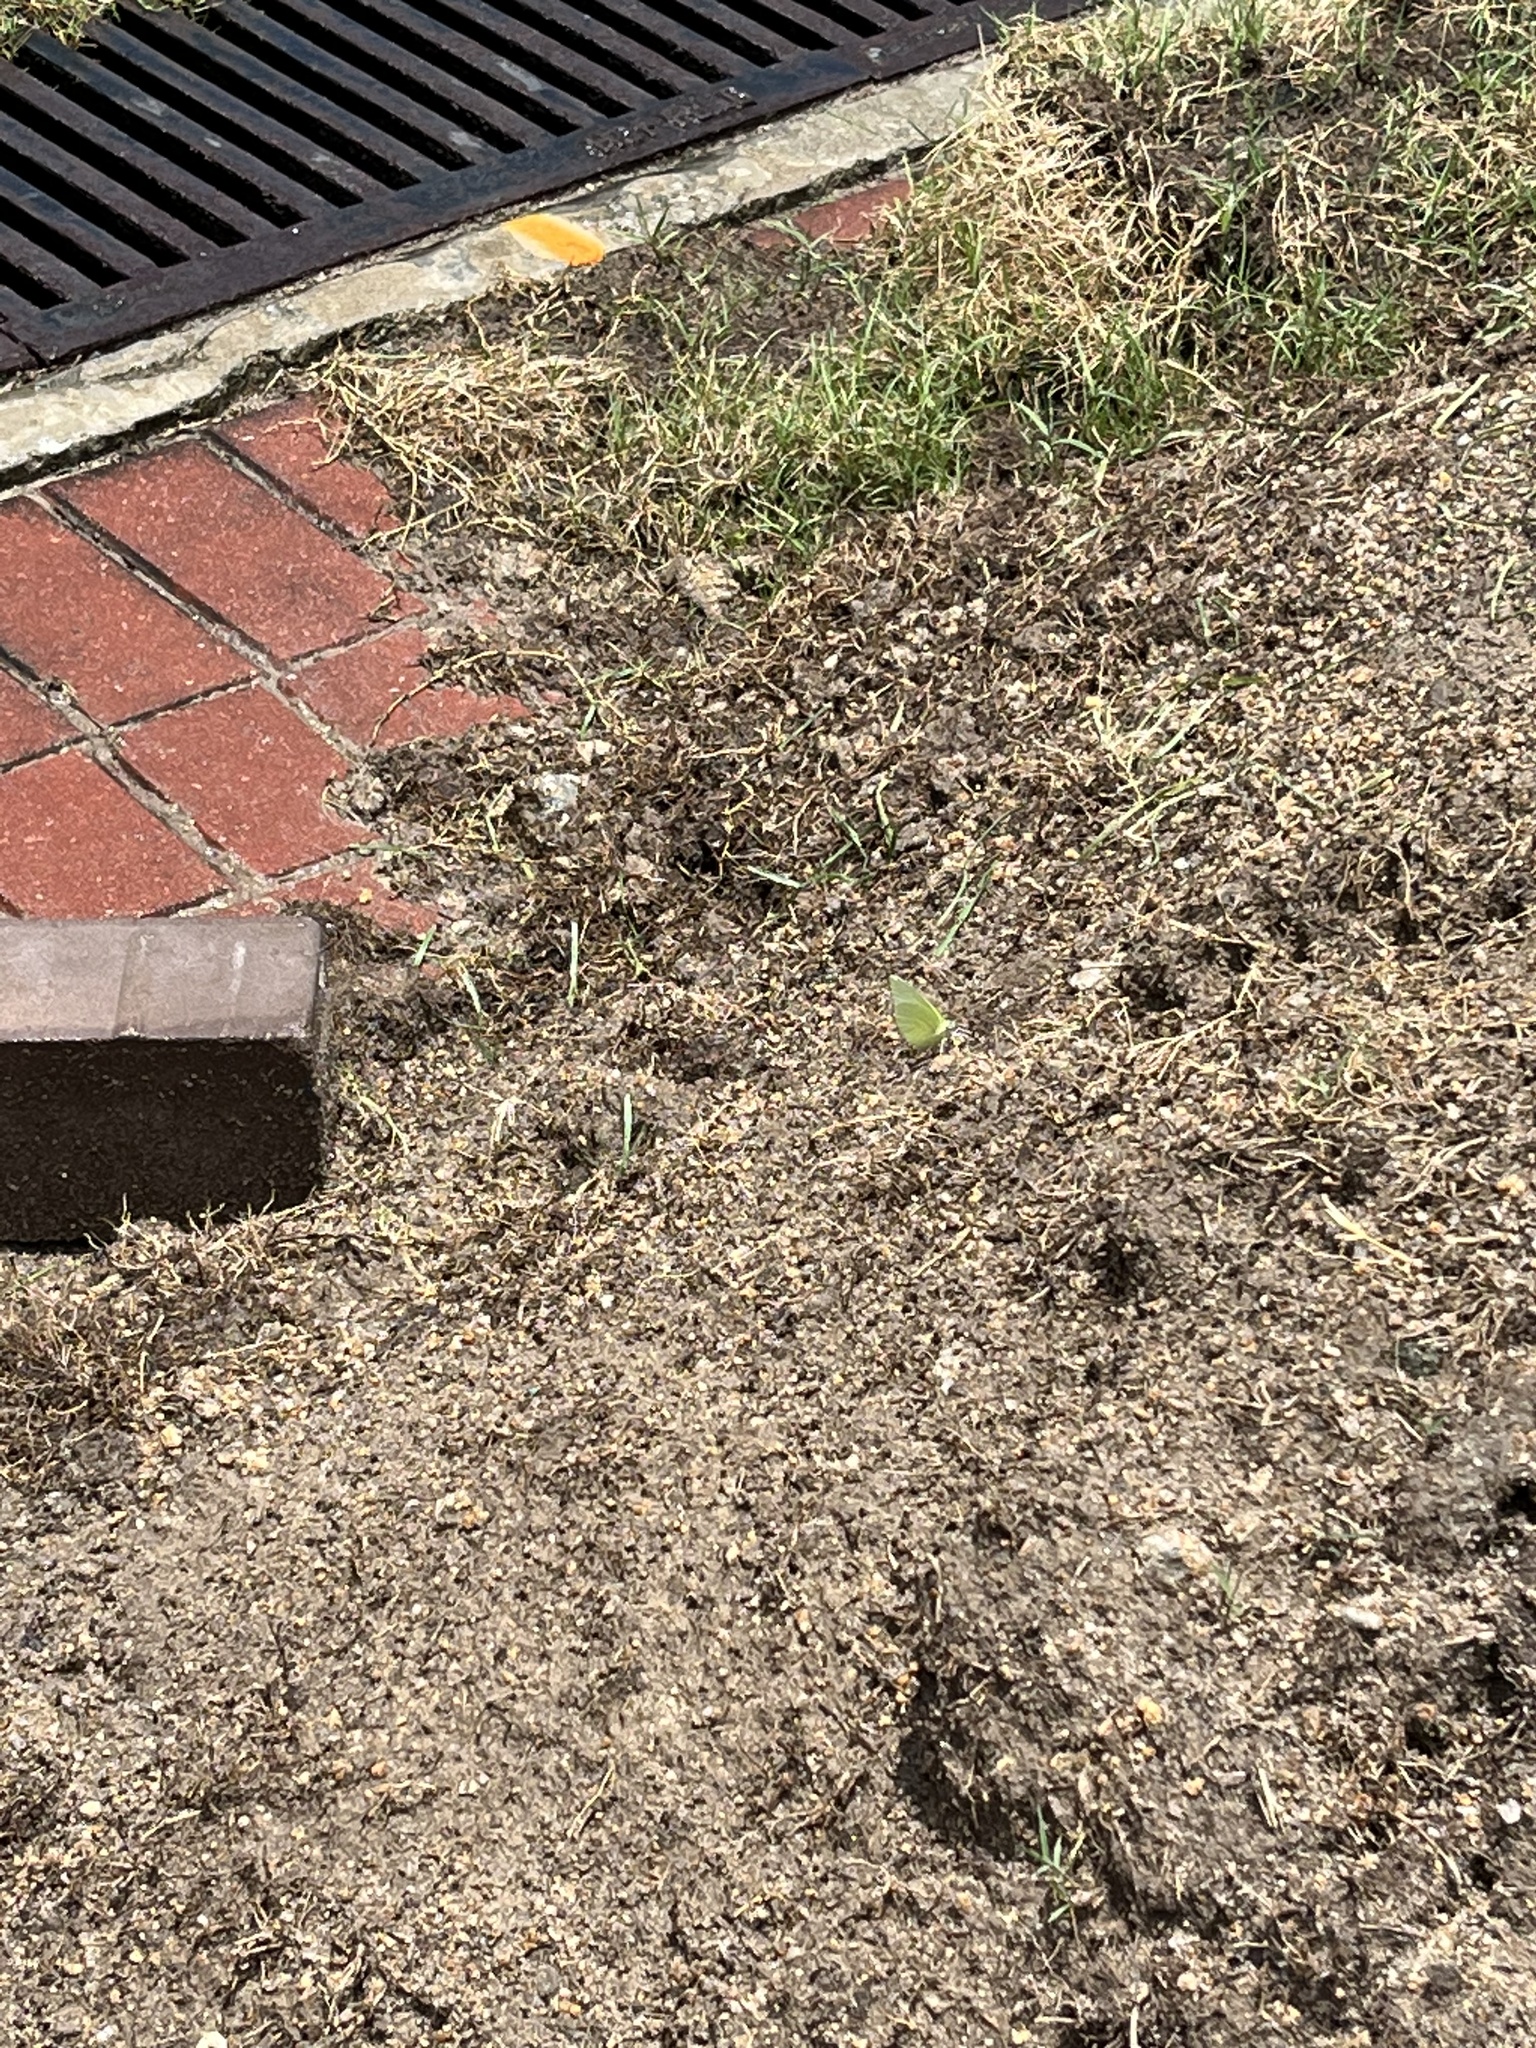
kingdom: Animalia
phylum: Arthropoda
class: Insecta
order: Lepidoptera
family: Pieridae
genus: Catopsilia
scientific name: Catopsilia pomona
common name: Common emigrant
